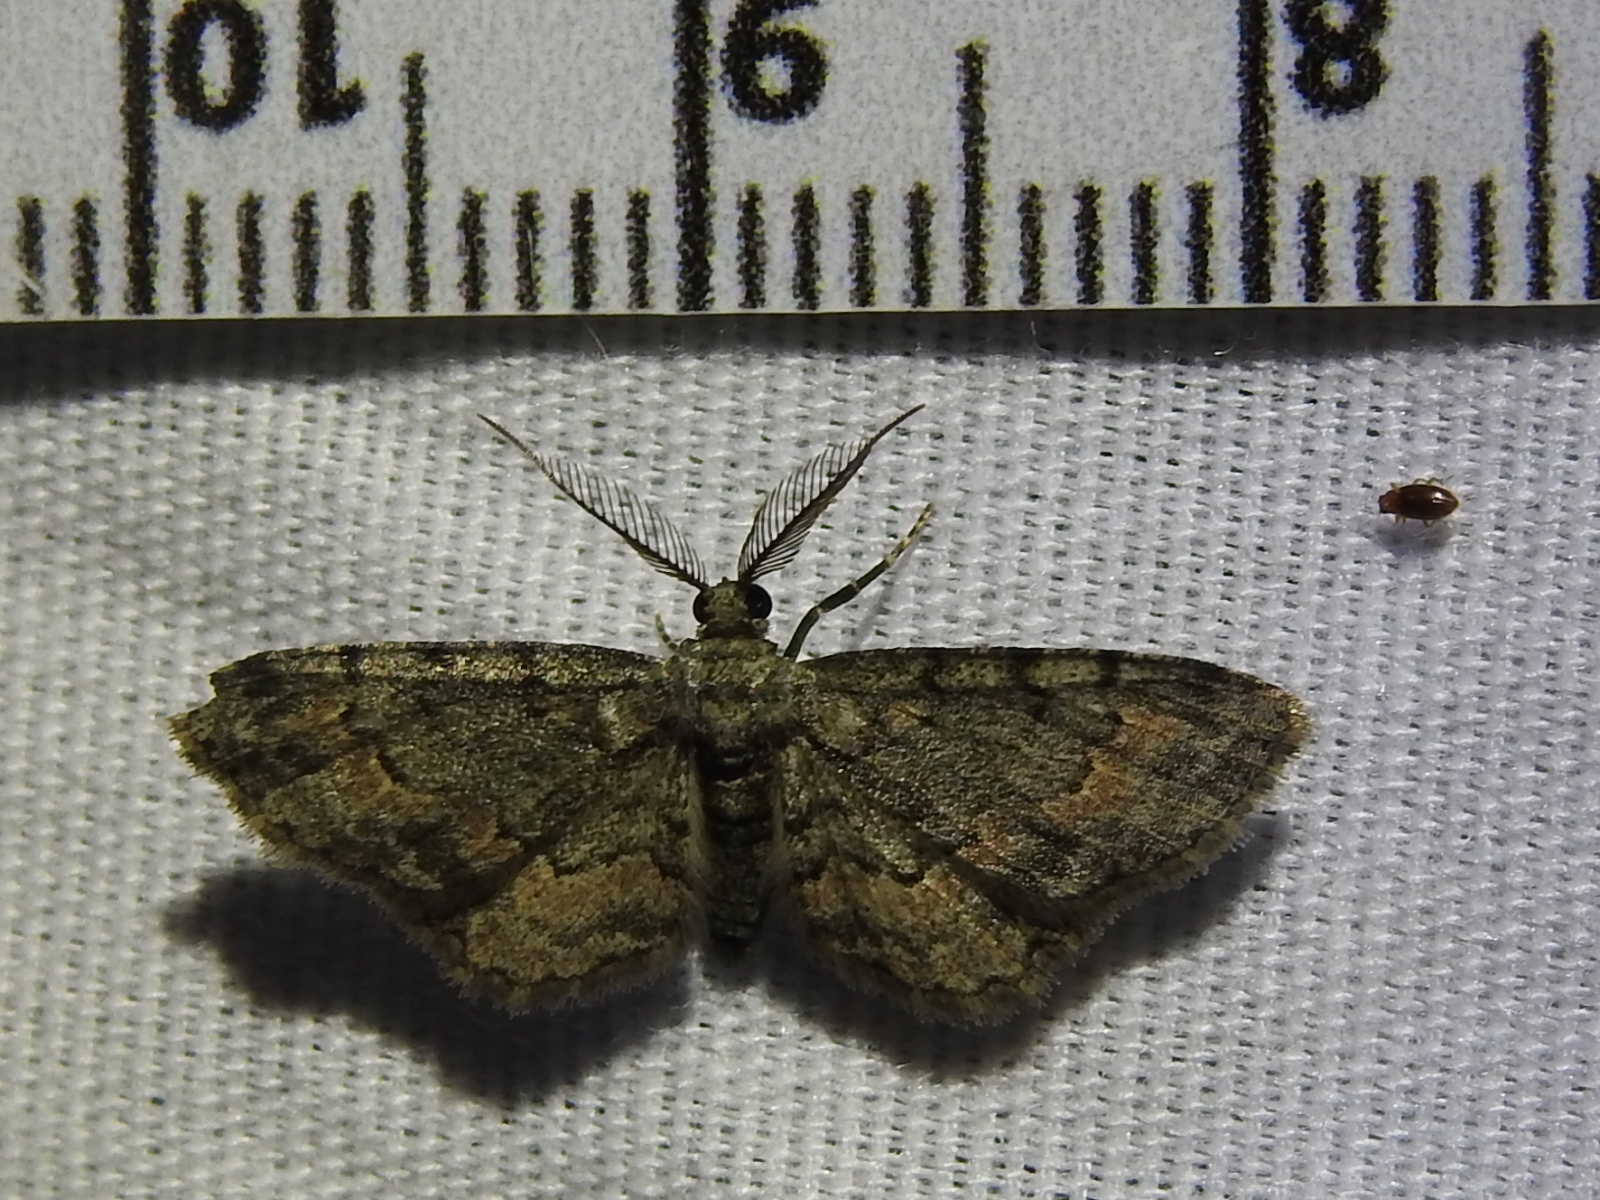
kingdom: Animalia
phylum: Arthropoda
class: Insecta
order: Lepidoptera
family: Geometridae
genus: Glenoides
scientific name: Glenoides texanaria
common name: Texas gray
